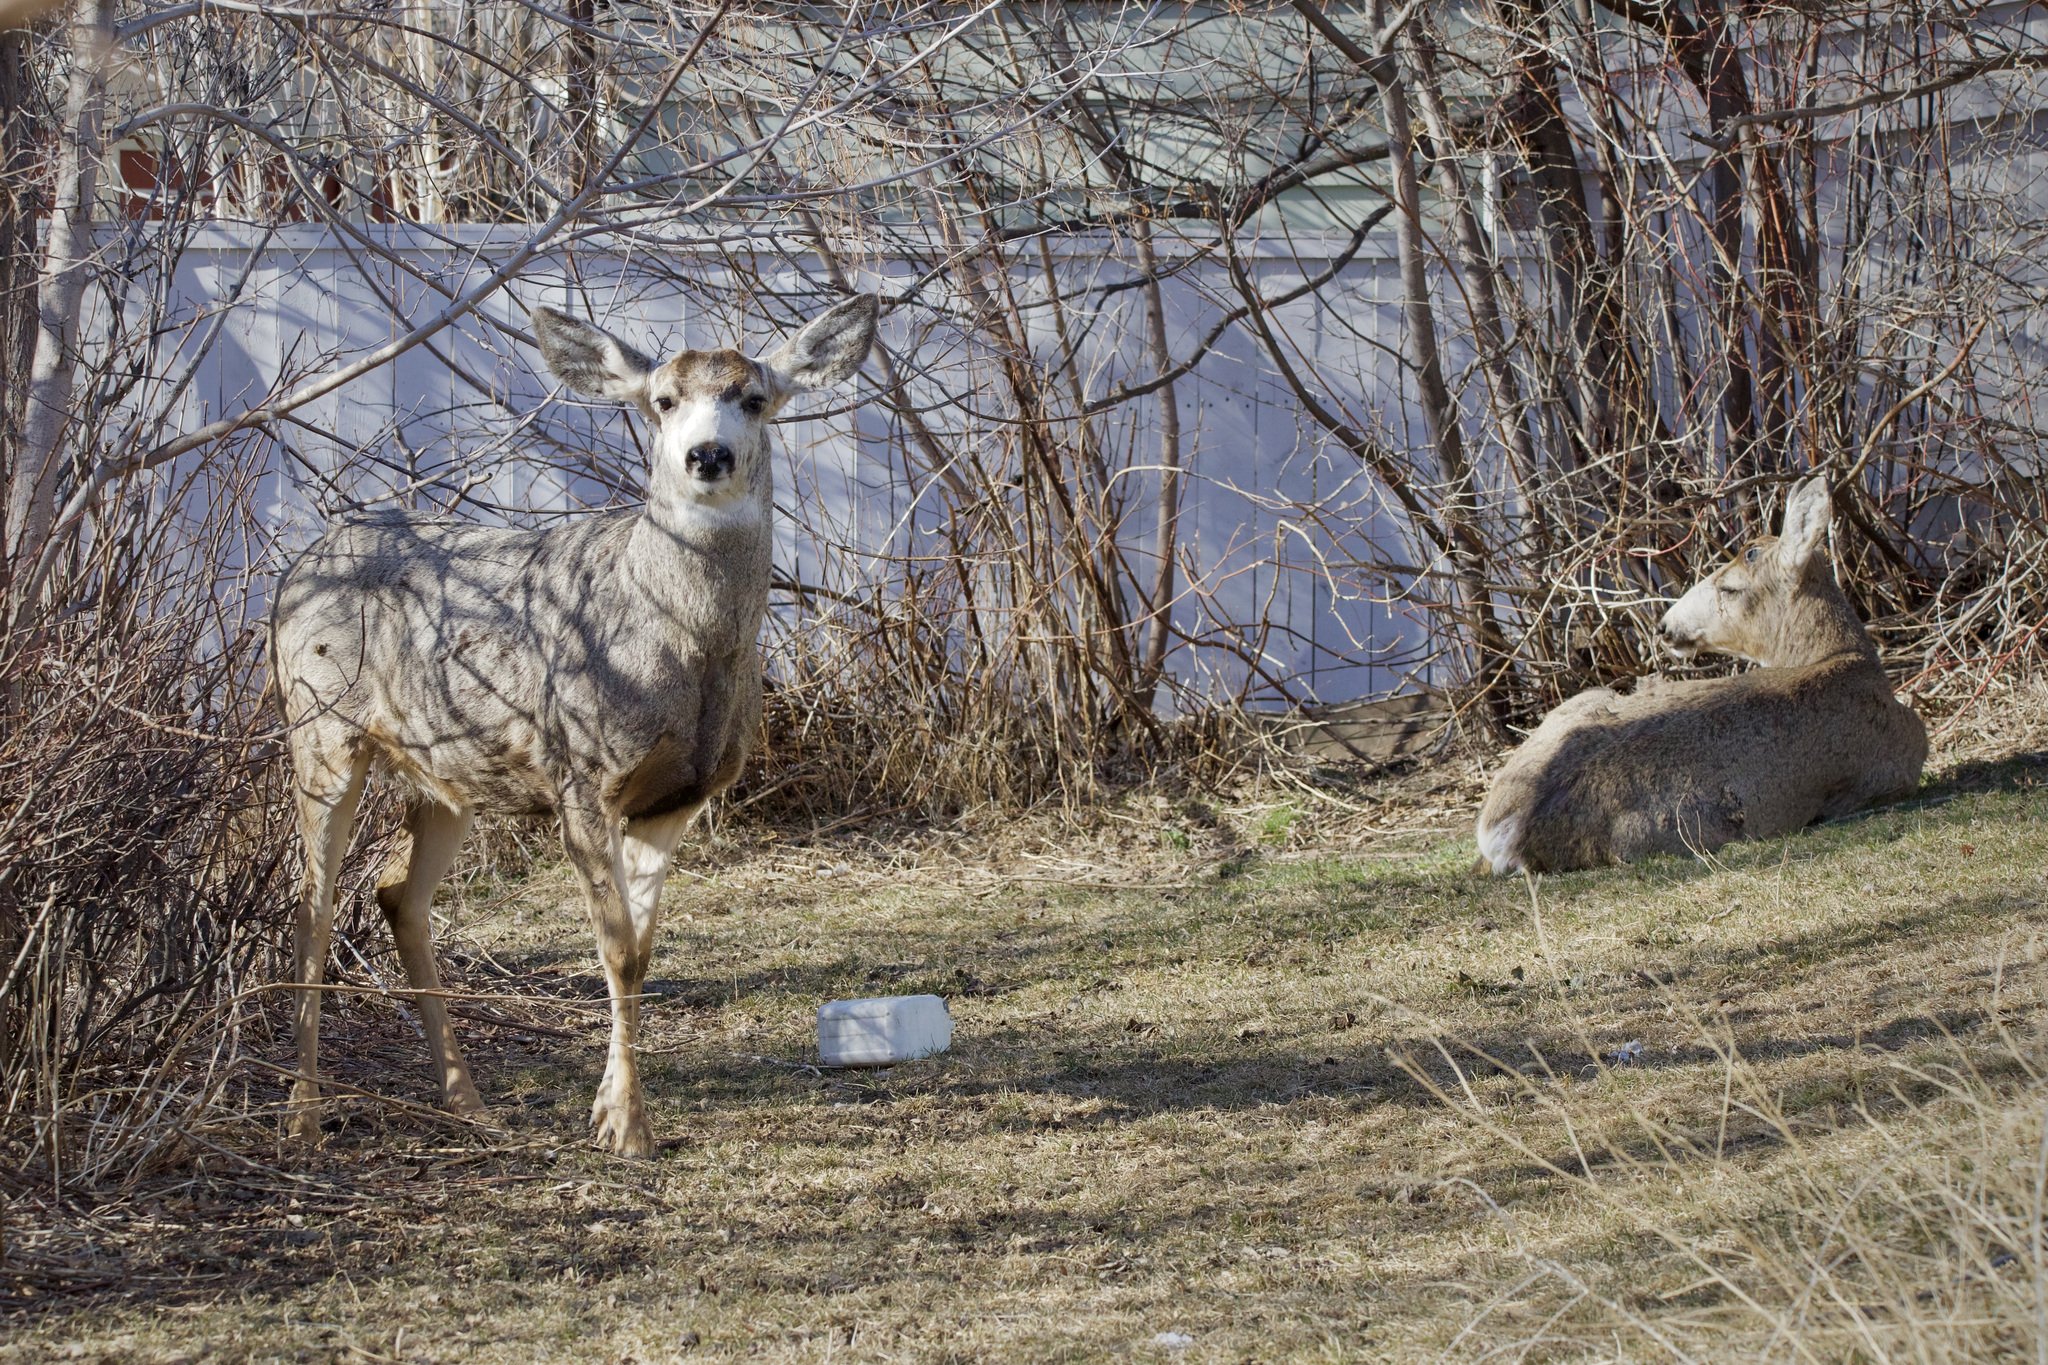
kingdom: Animalia
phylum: Chordata
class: Mammalia
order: Artiodactyla
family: Cervidae
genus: Odocoileus
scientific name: Odocoileus hemionus
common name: Mule deer
